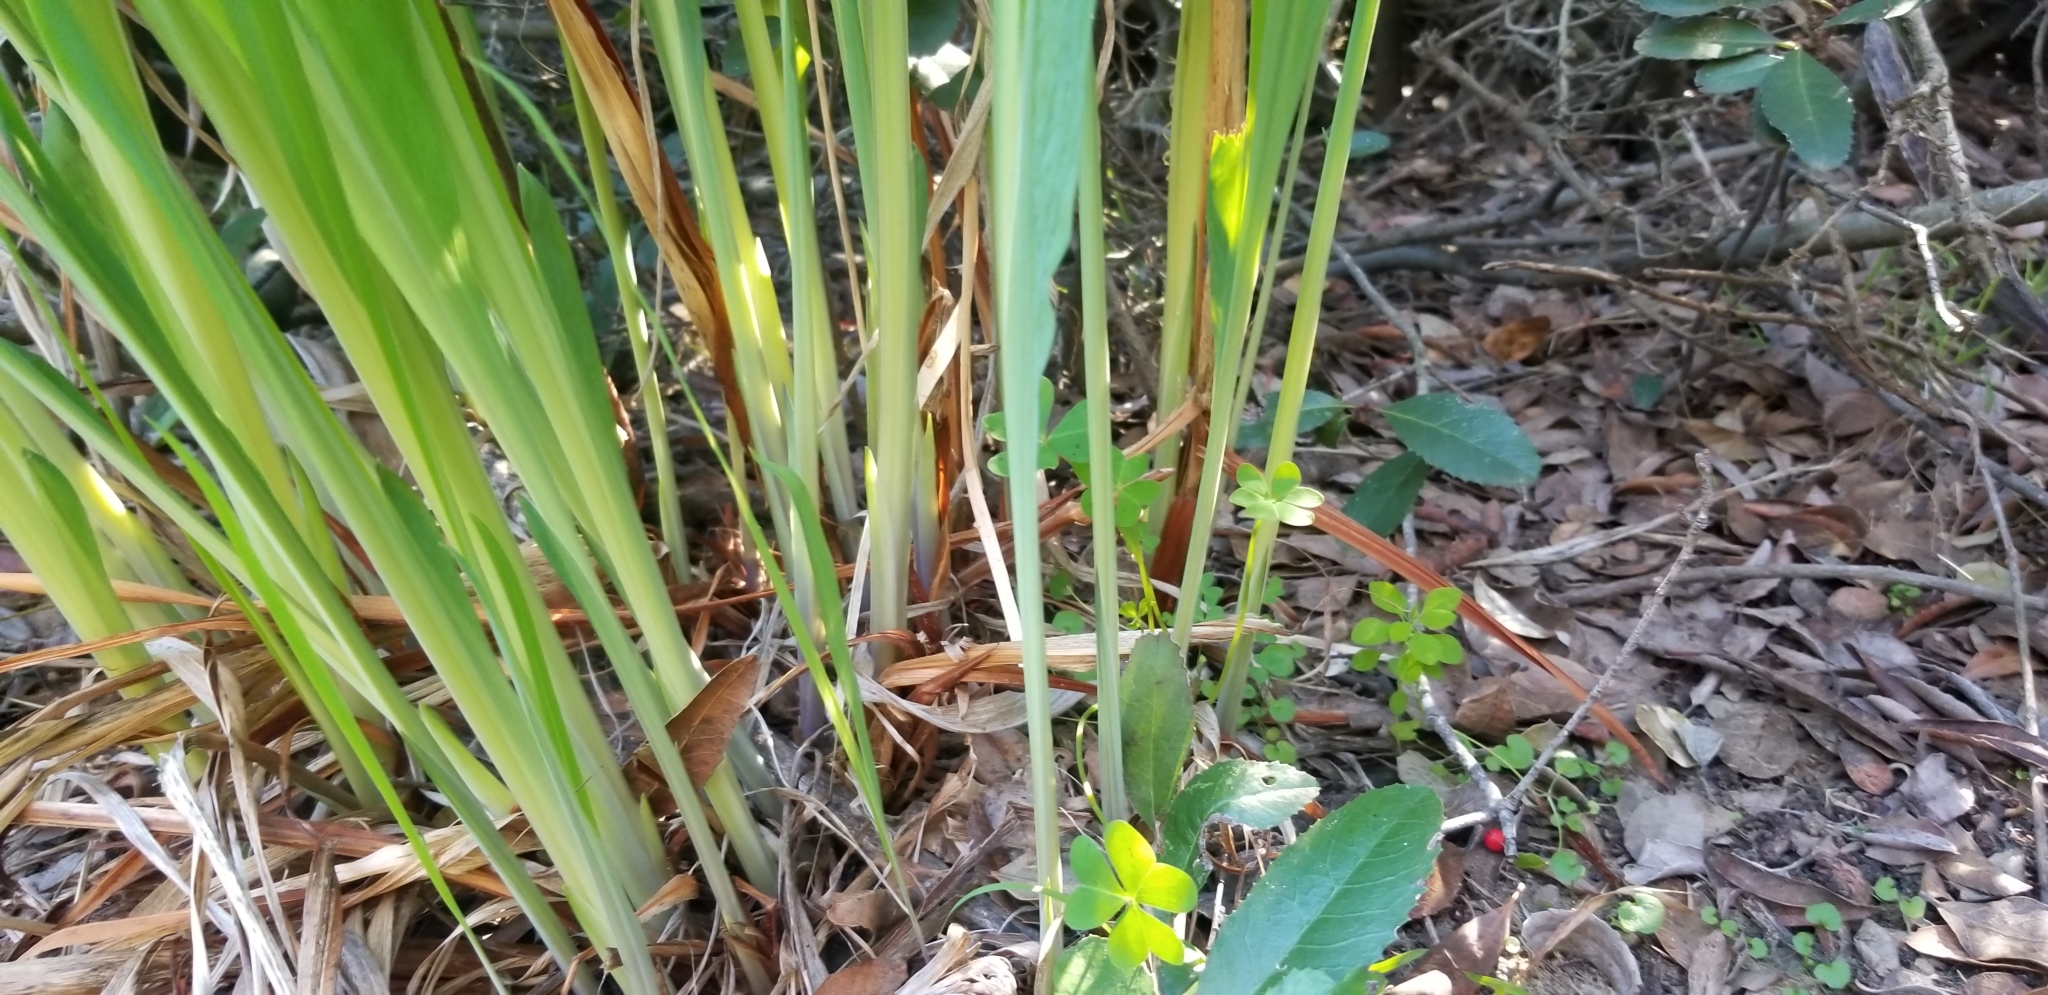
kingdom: Plantae
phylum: Tracheophyta
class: Liliopsida
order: Asparagales
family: Iridaceae
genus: Chasmanthe
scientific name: Chasmanthe floribunda
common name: African cornflag
